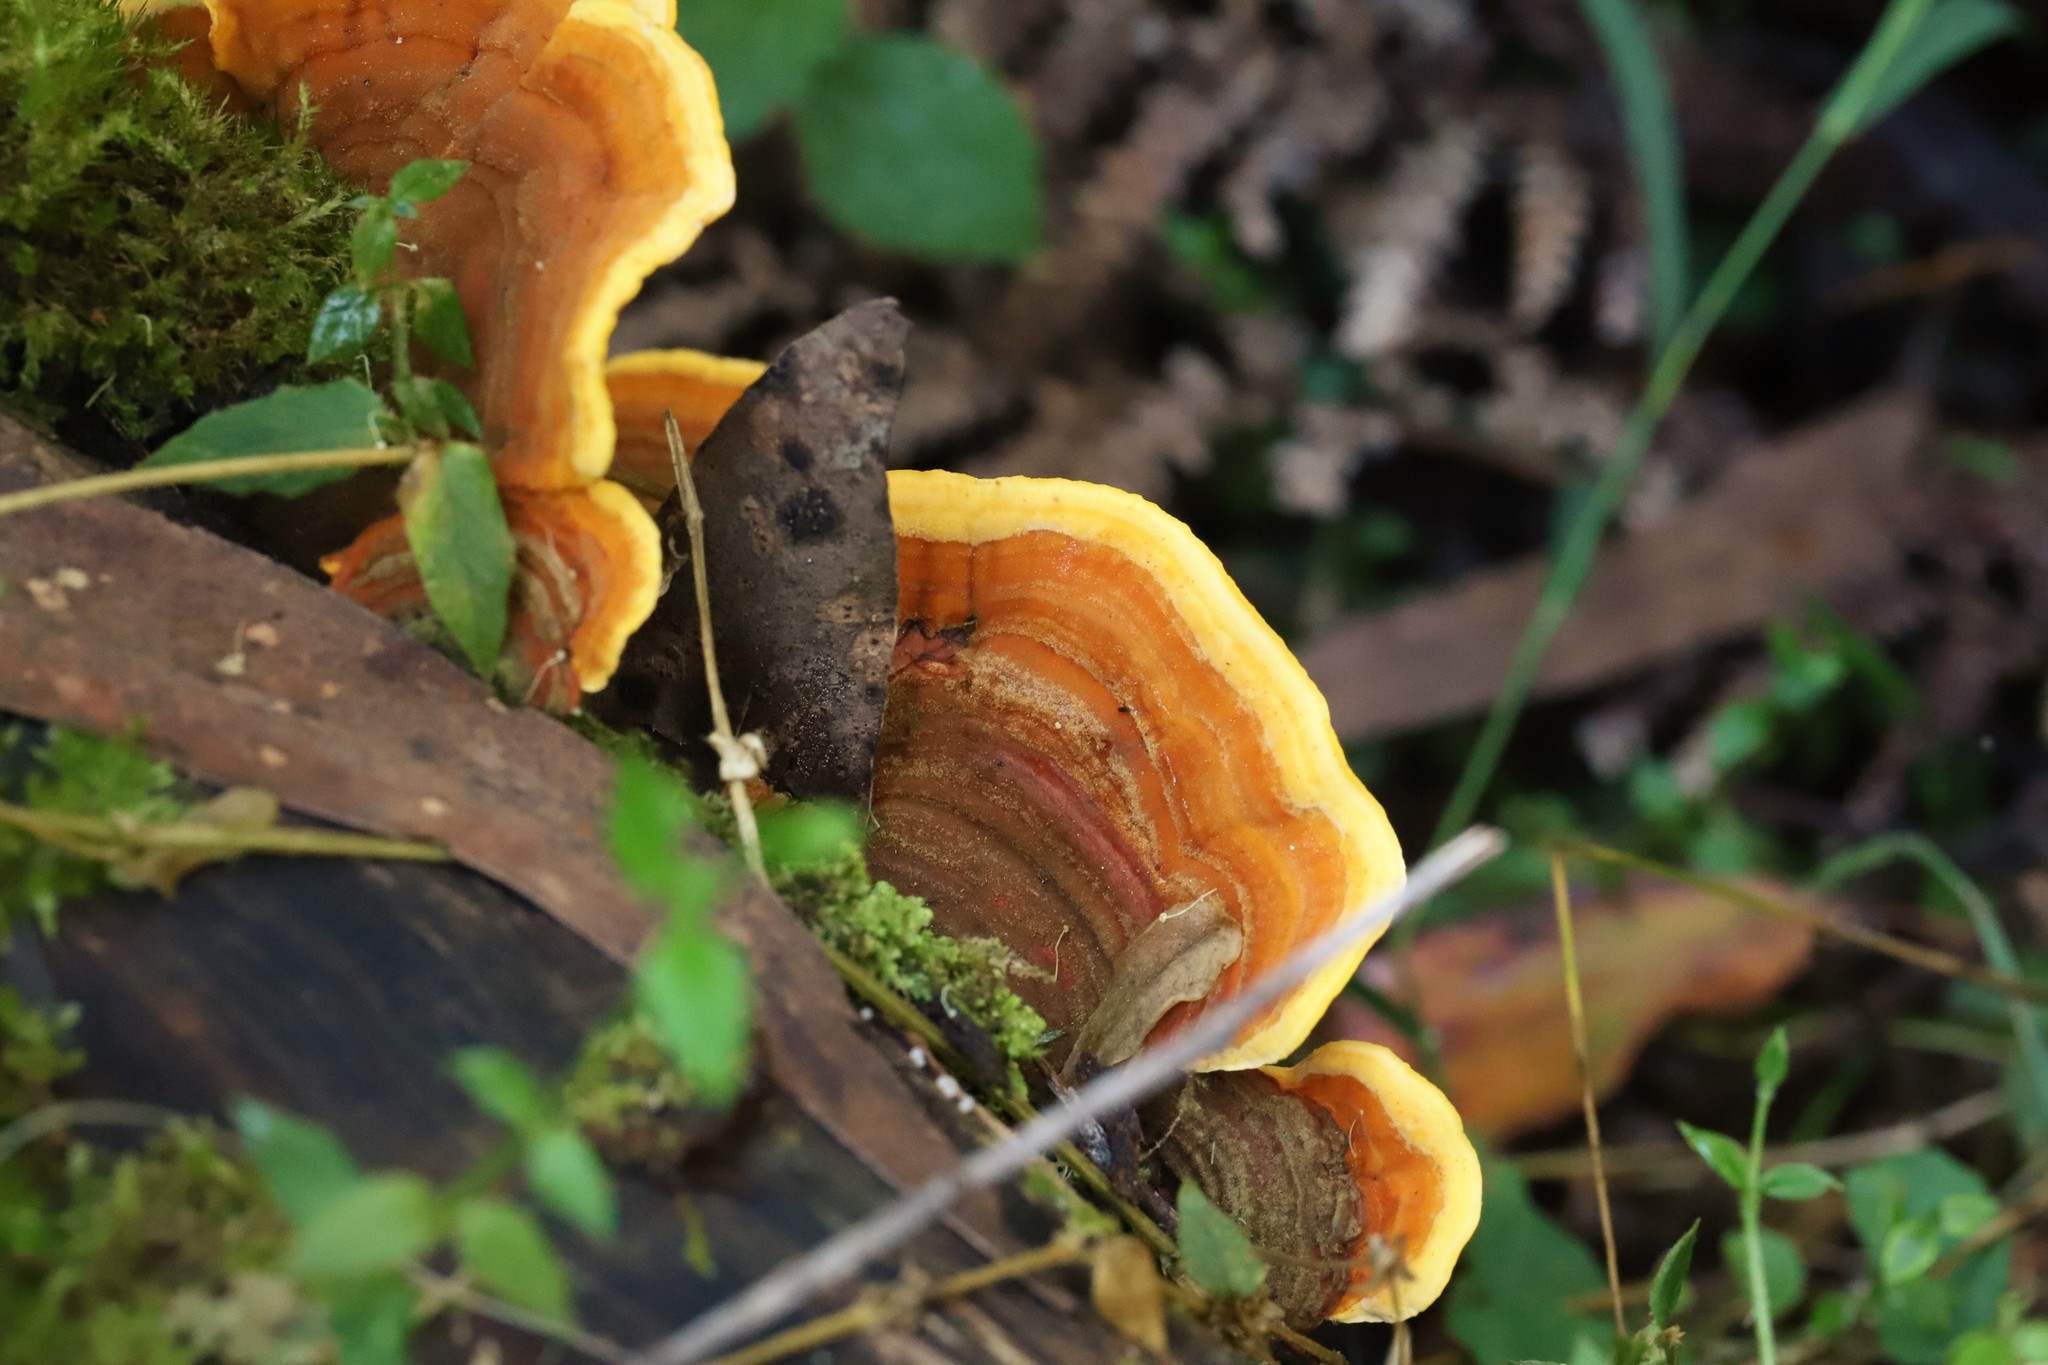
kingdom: Fungi
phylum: Basidiomycota
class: Agaricomycetes
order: Russulales
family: Stereaceae
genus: Stereum
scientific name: Stereum versicolor
